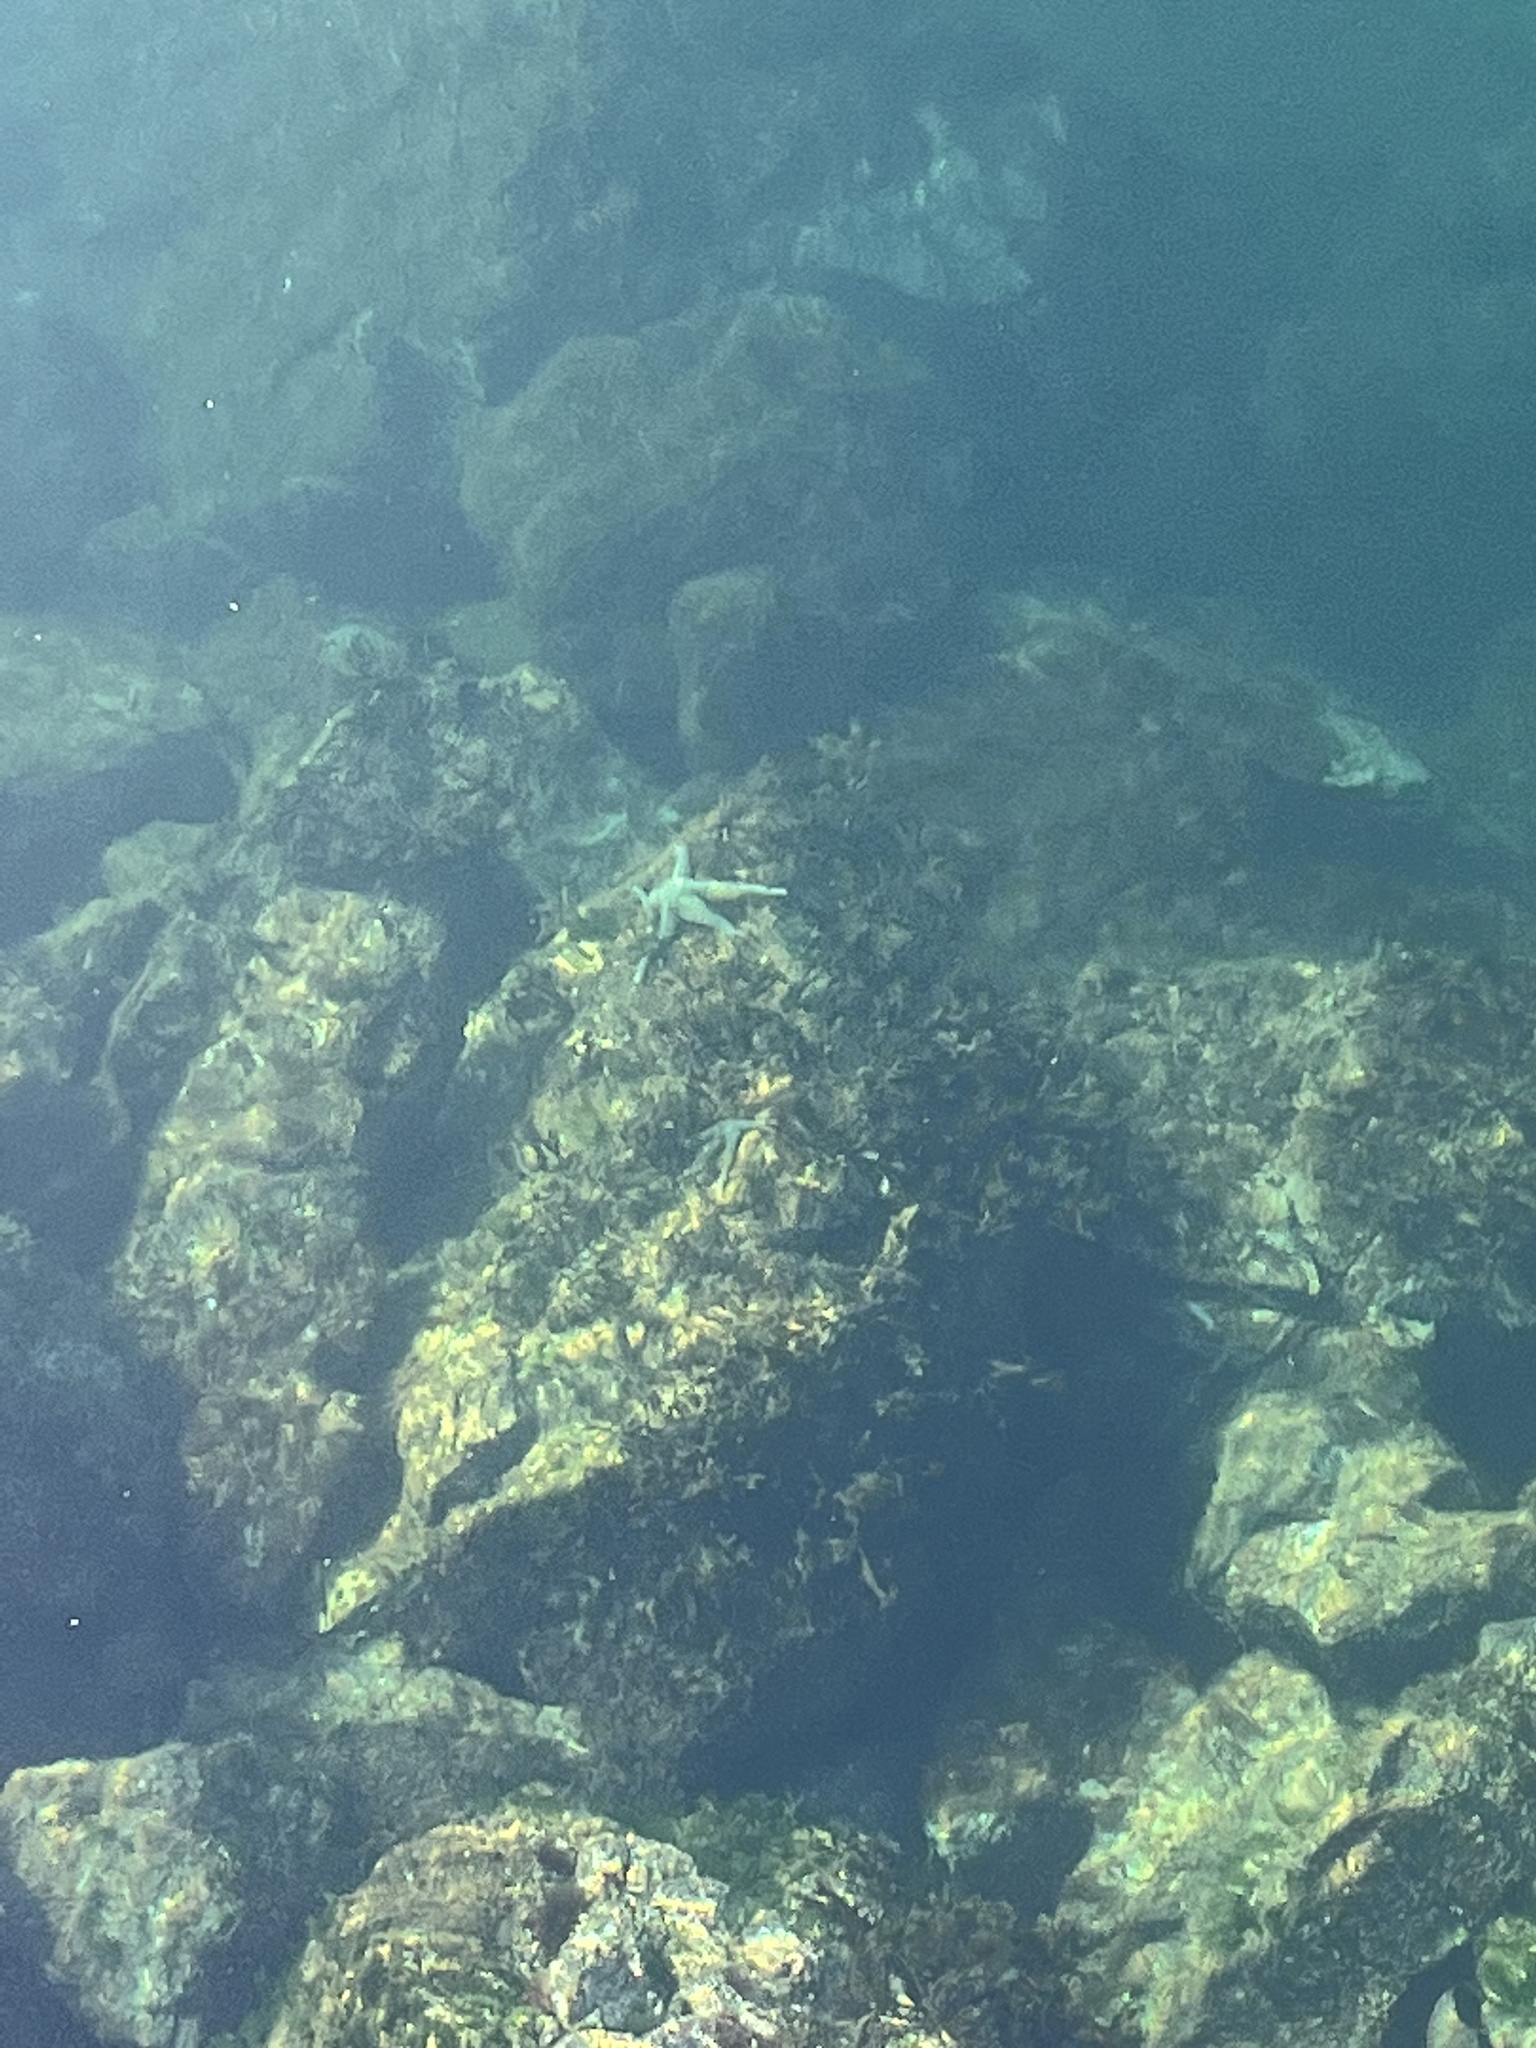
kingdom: Animalia
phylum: Echinodermata
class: Asteroidea
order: Forcipulatida
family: Asteriidae
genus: Evasterias
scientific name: Evasterias troschelii
